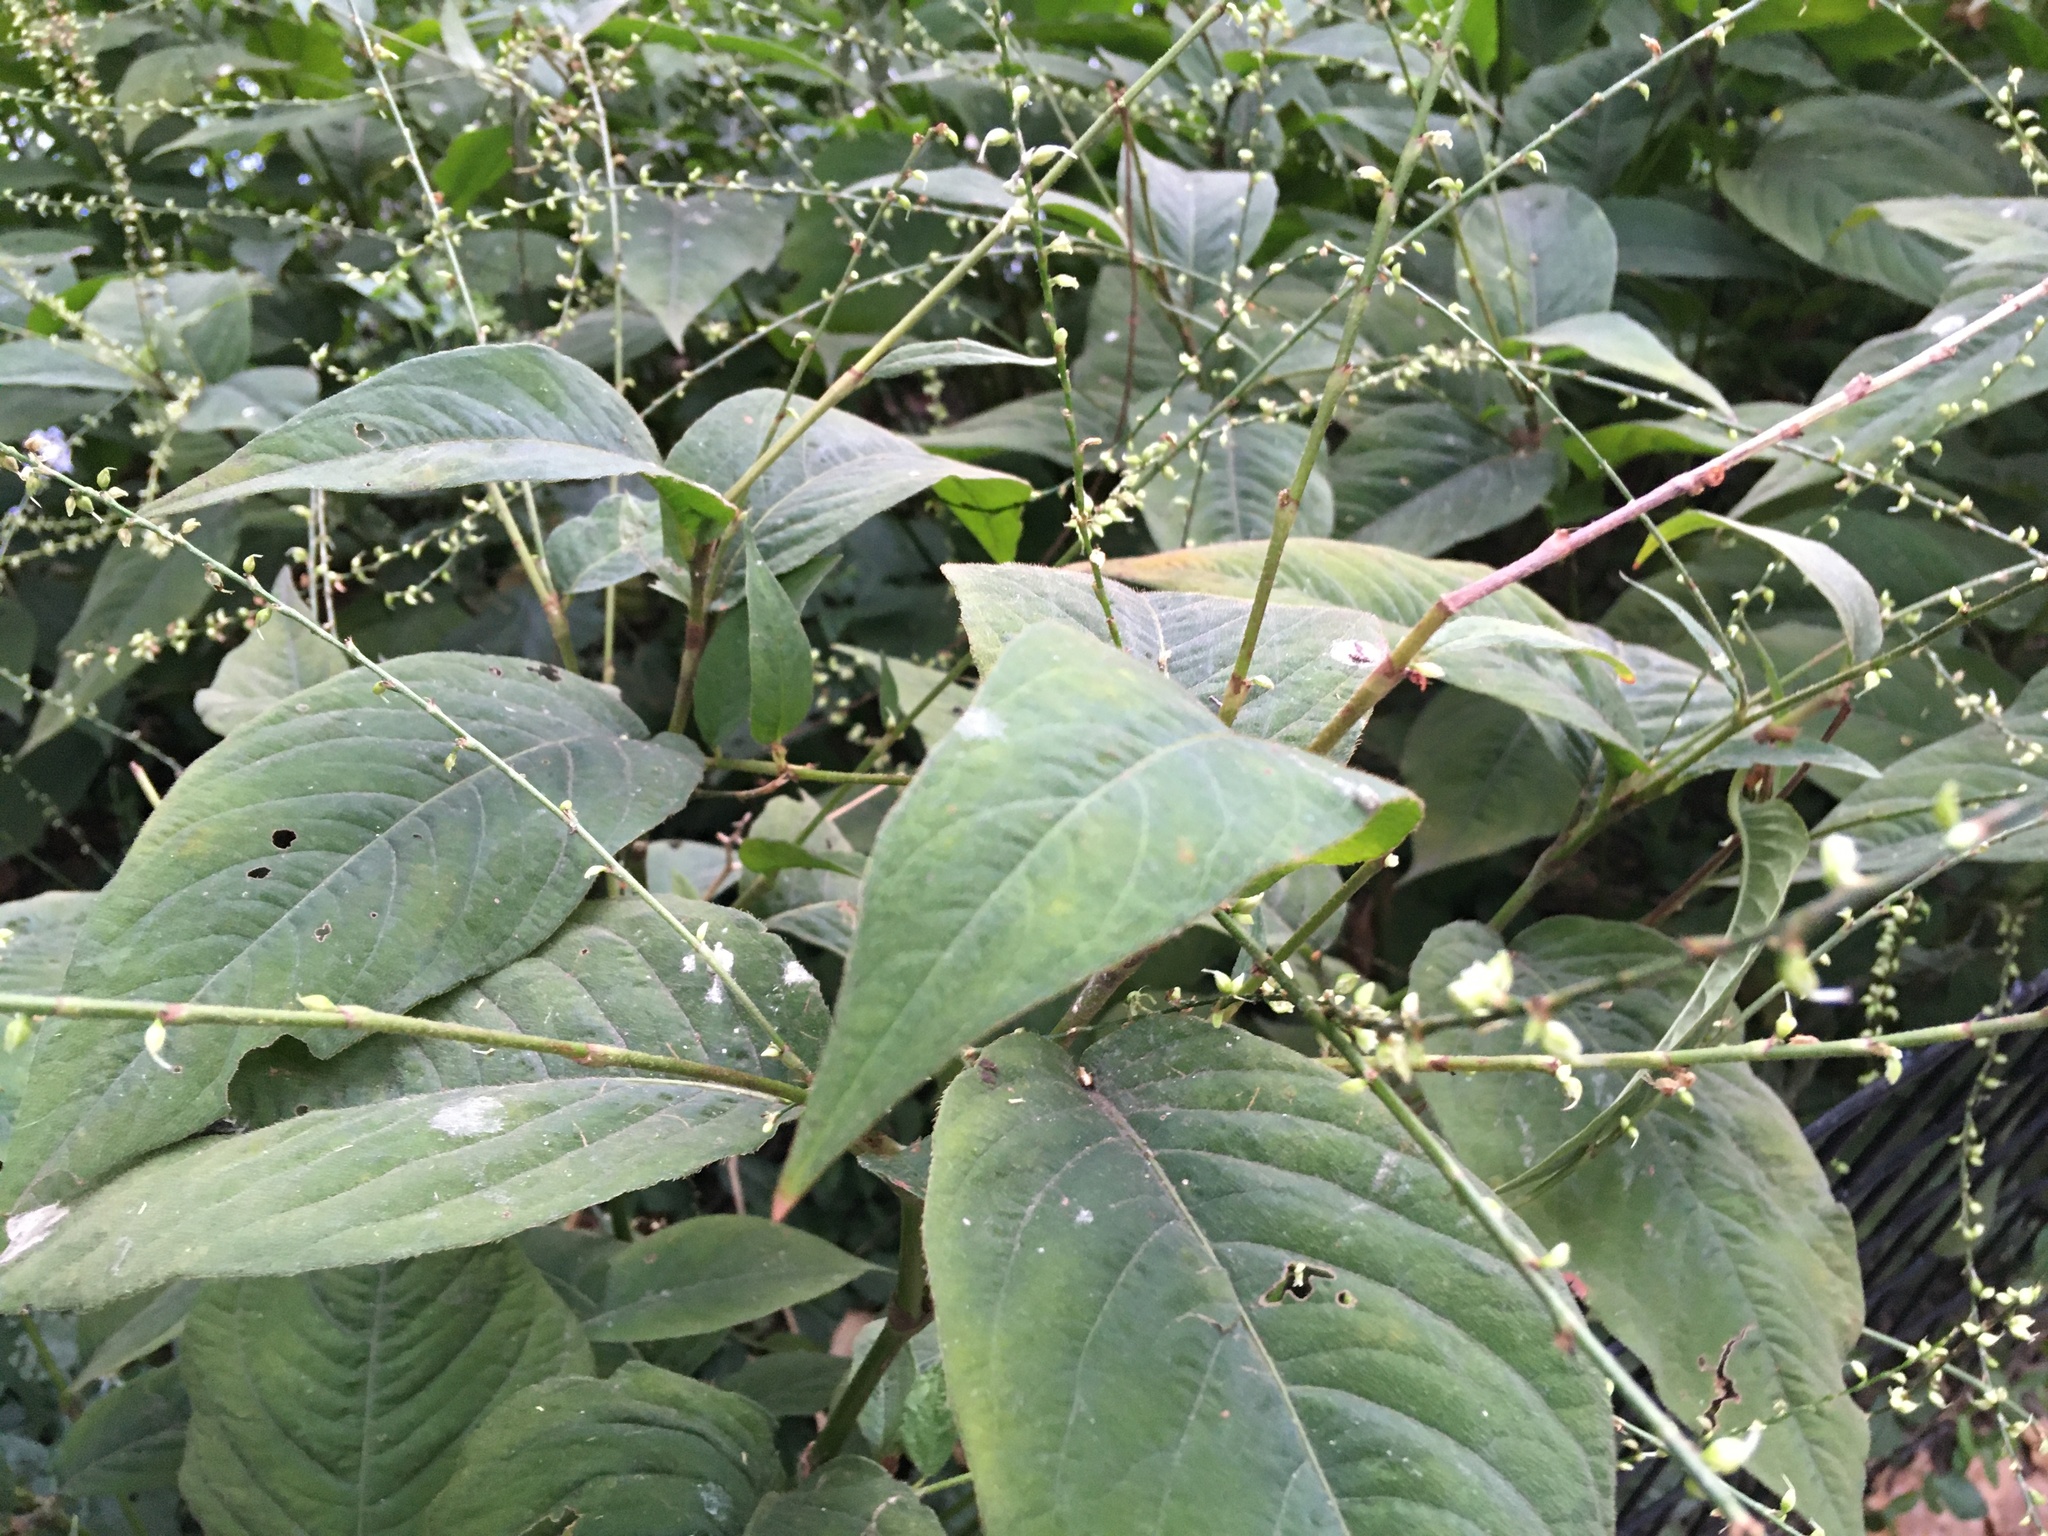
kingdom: Plantae
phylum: Tracheophyta
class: Magnoliopsida
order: Caryophyllales
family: Polygonaceae
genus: Persicaria
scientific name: Persicaria virginiana
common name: Jumpseed
